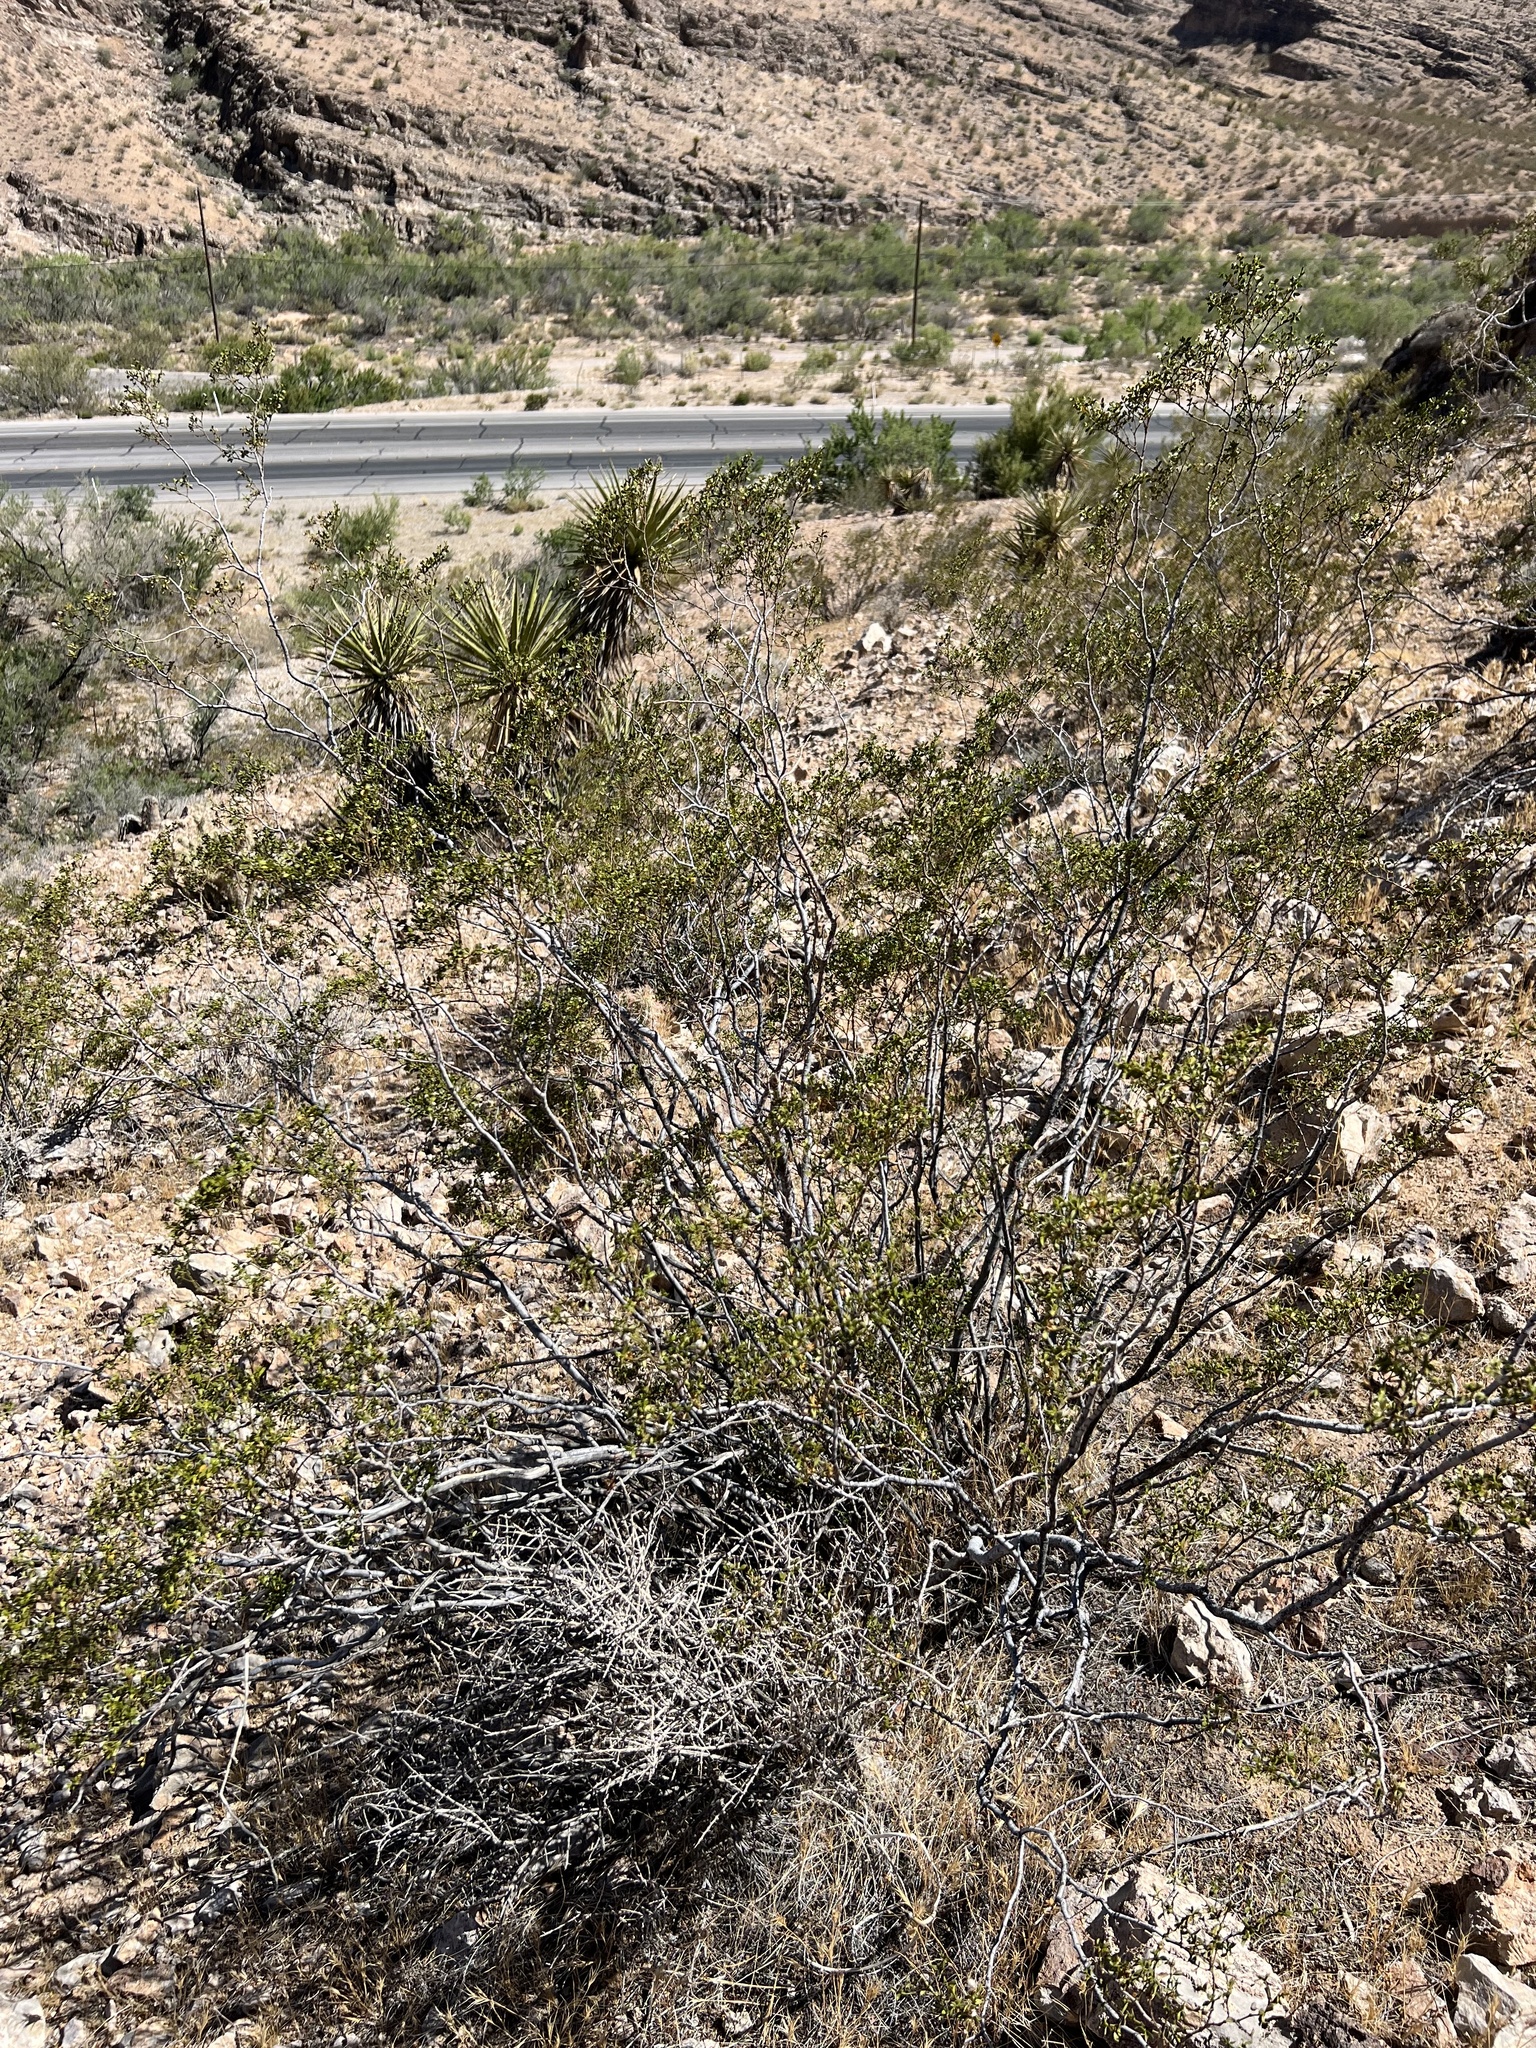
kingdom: Plantae
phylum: Tracheophyta
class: Magnoliopsida
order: Zygophyllales
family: Zygophyllaceae
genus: Larrea
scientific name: Larrea tridentata
